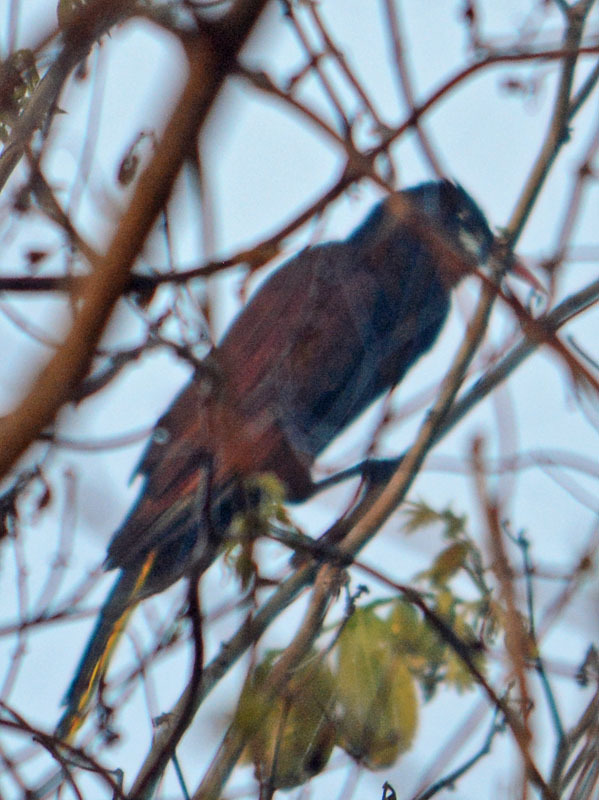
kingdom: Animalia
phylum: Chordata
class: Aves
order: Passeriformes
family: Icteridae
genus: Psarocolius
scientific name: Psarocolius montezuma
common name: Montezuma oropendola
